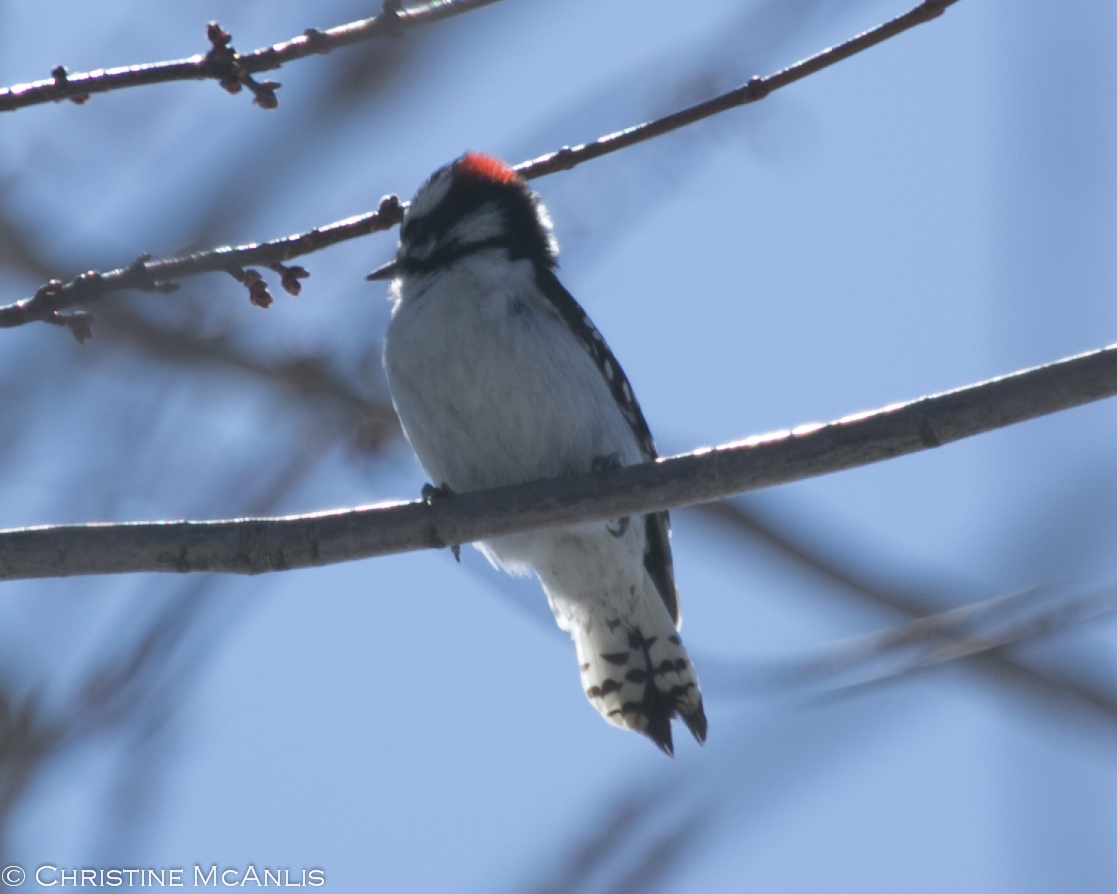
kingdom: Animalia
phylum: Chordata
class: Aves
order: Piciformes
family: Picidae
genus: Dryobates
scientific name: Dryobates pubescens
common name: Downy woodpecker
